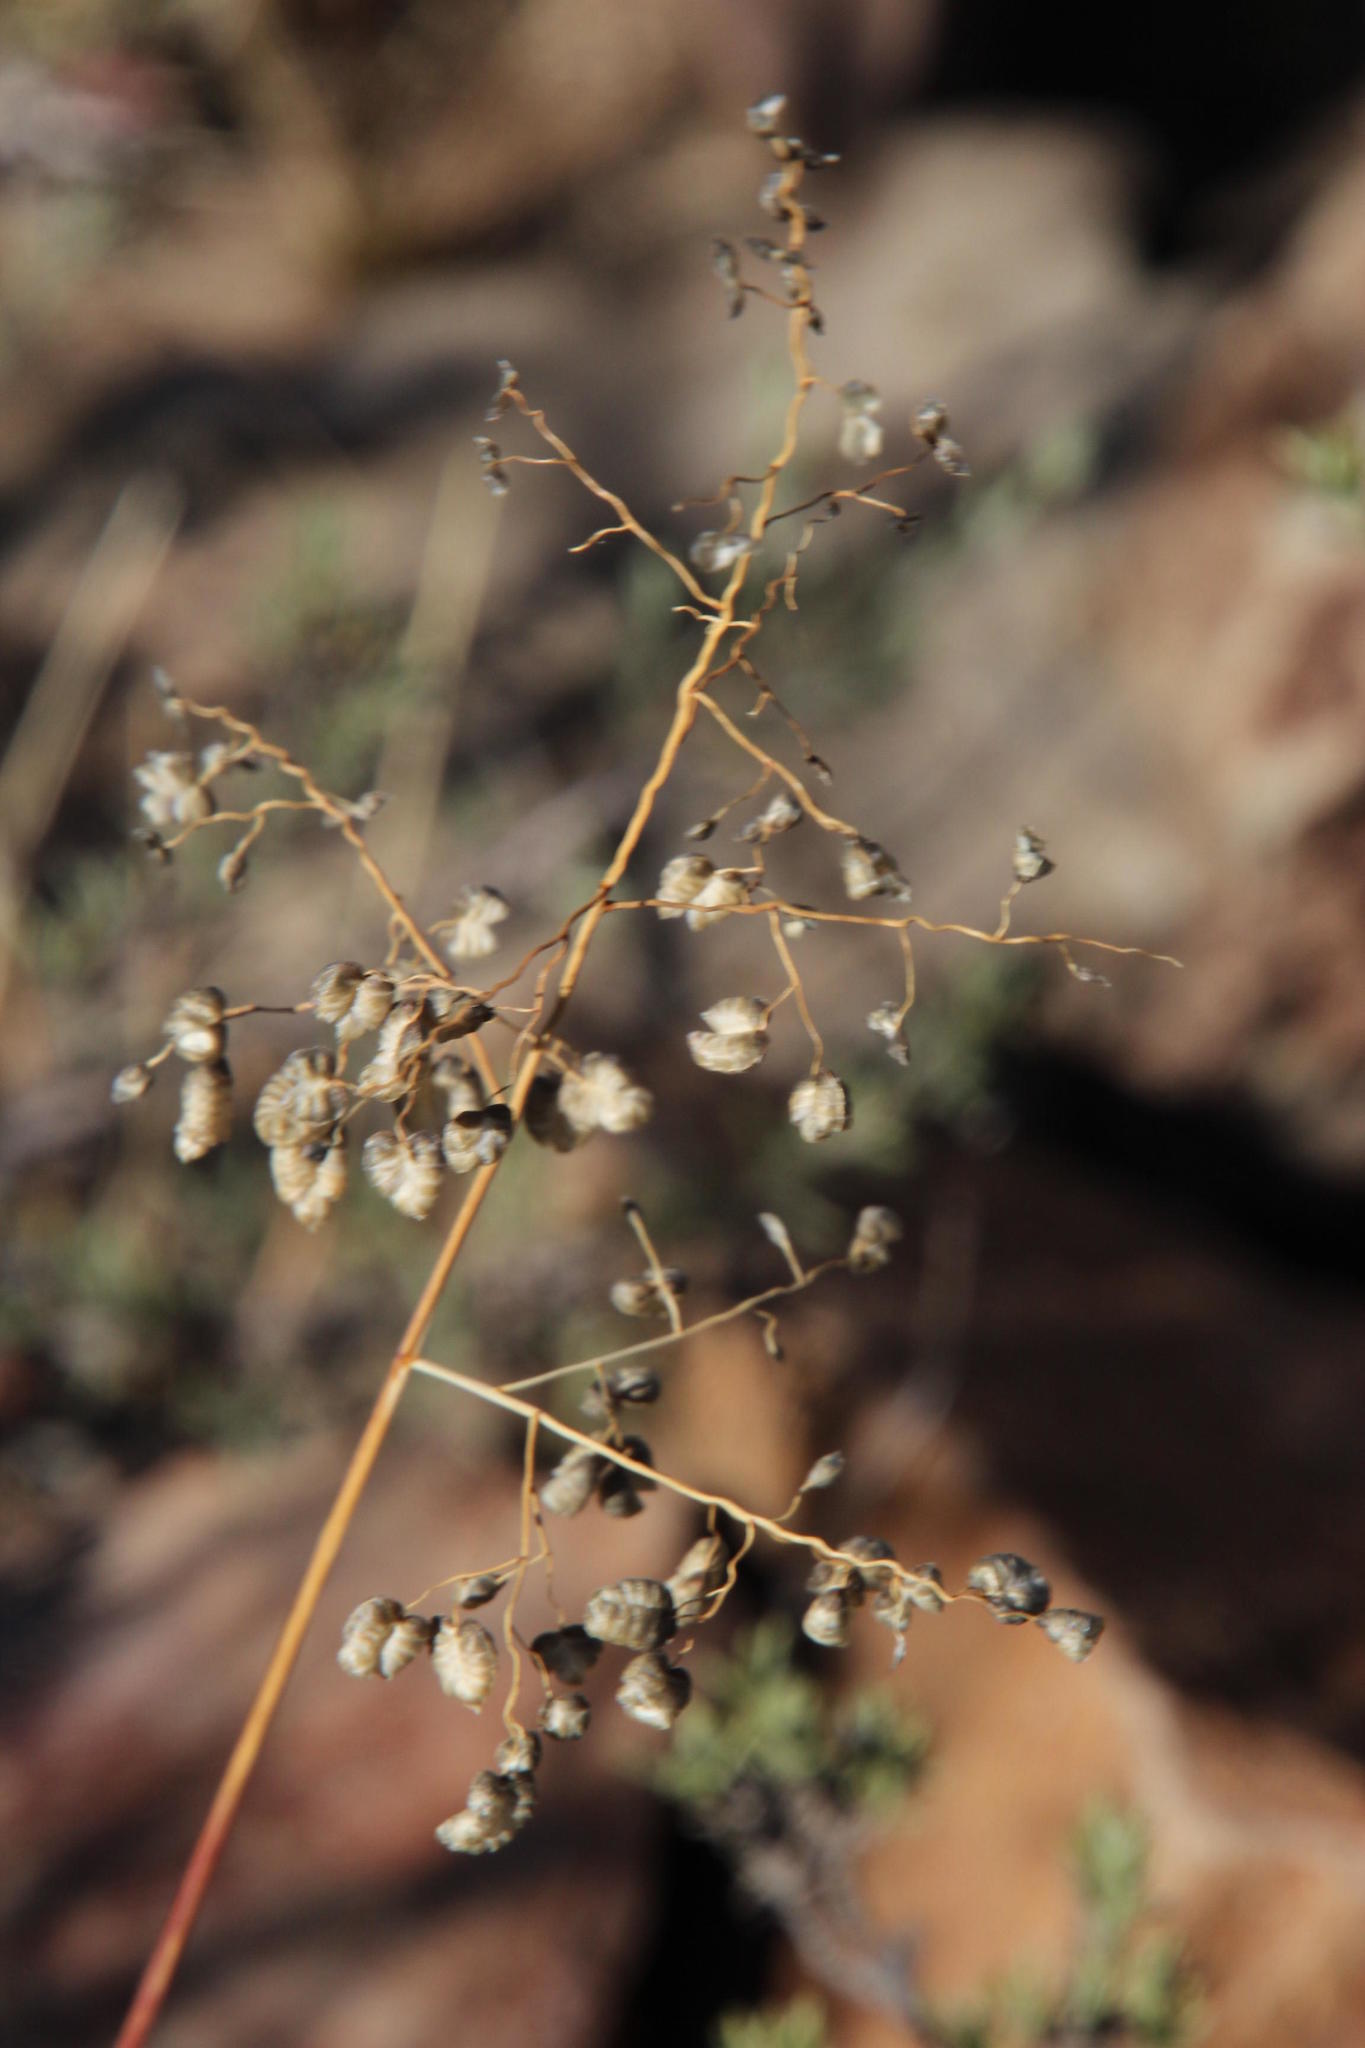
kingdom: Plantae
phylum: Tracheophyta
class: Liliopsida
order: Poales
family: Poaceae
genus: Eragrostis
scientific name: Eragrostis obtusa
